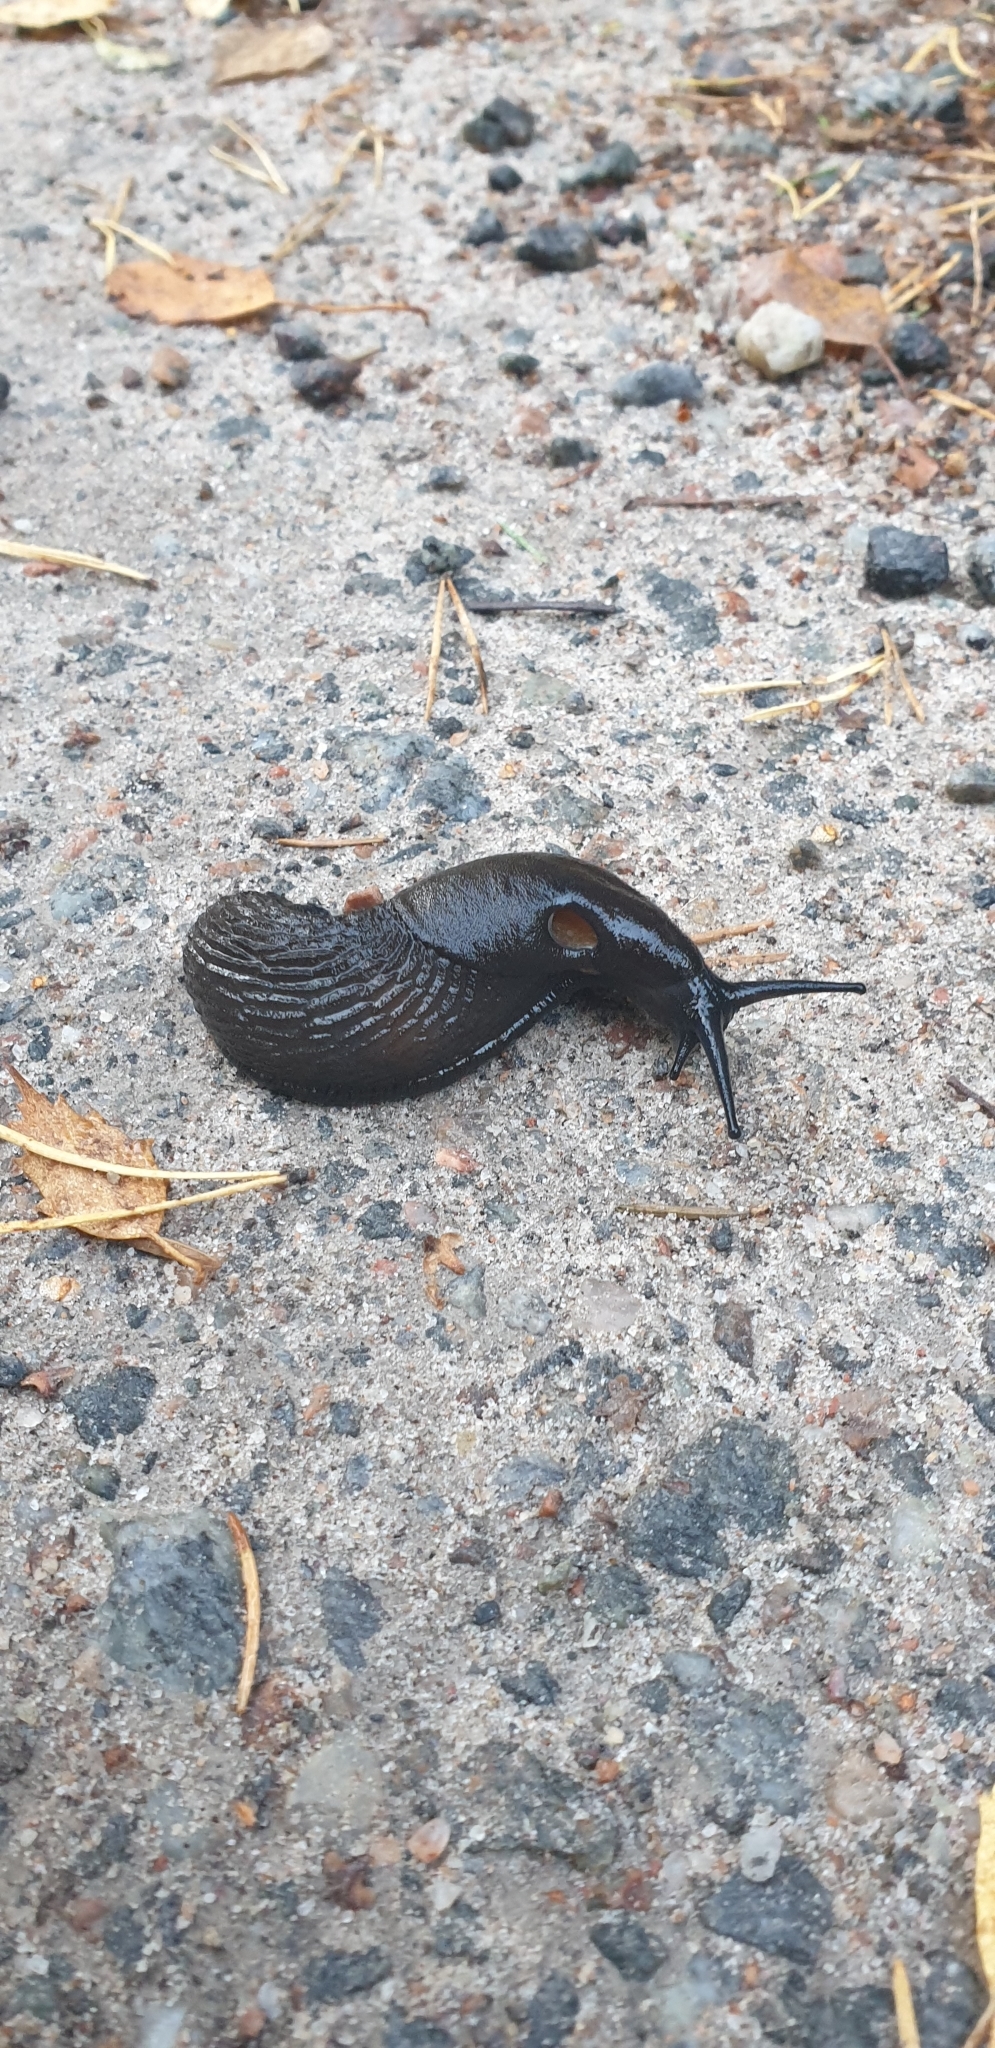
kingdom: Animalia
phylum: Mollusca
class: Gastropoda
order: Stylommatophora
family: Arionidae
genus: Arion
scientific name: Arion vulgaris
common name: Lusitanian slug
